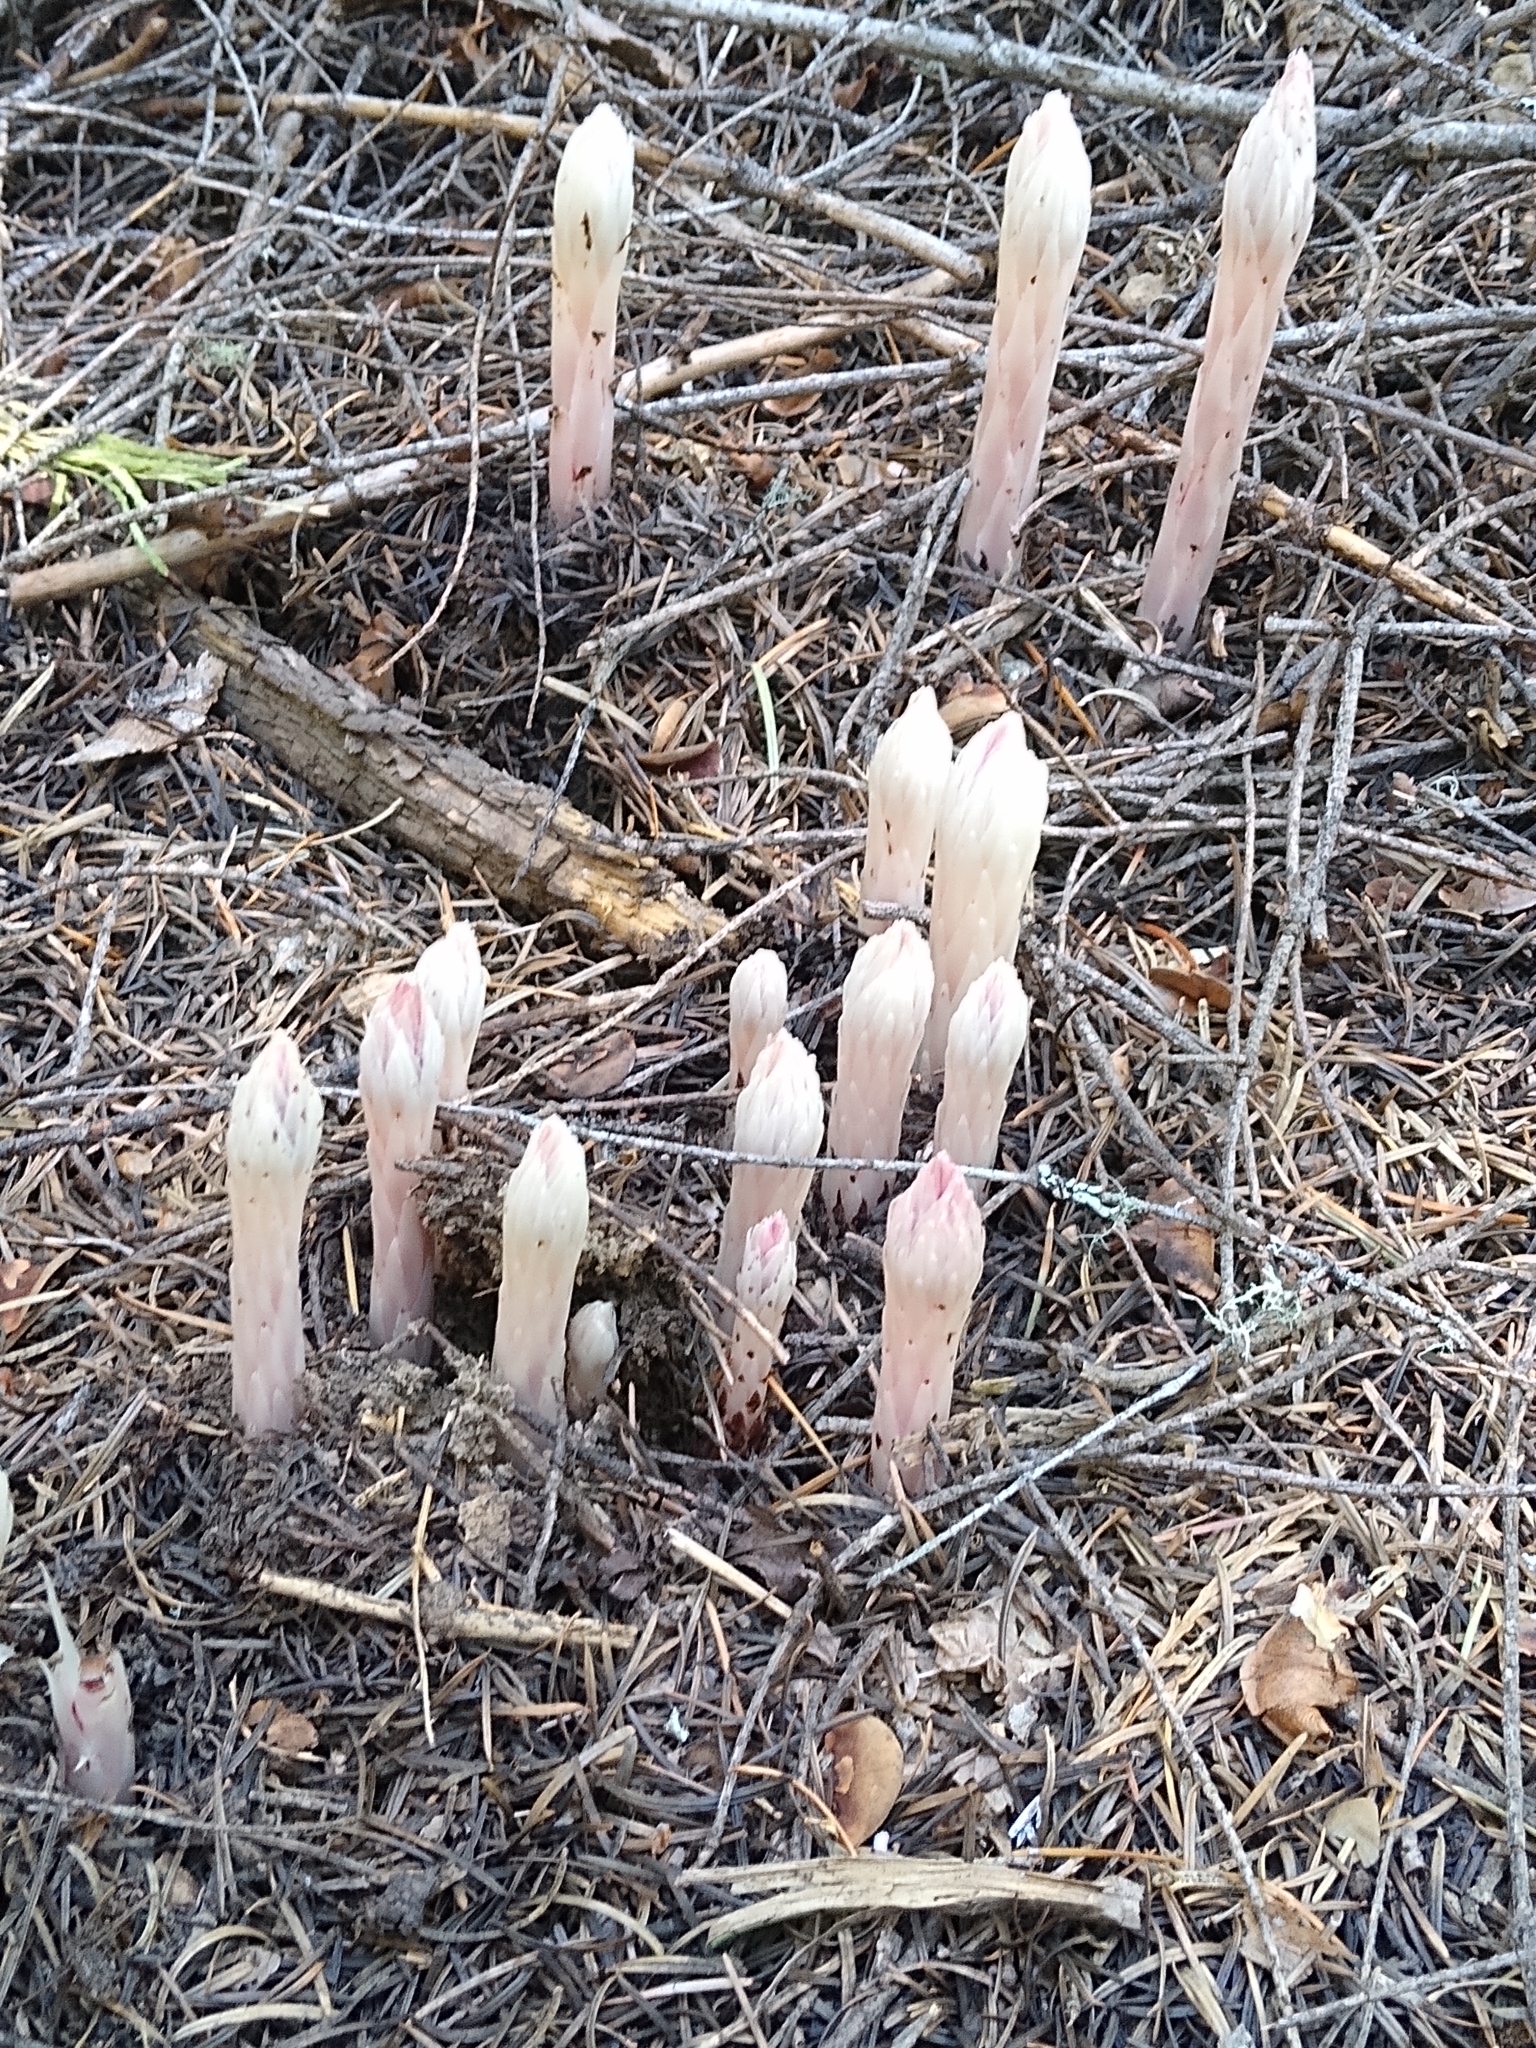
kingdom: Plantae
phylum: Tracheophyta
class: Magnoliopsida
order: Ericales
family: Ericaceae
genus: Allotropa
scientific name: Allotropa virgata
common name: Candy-striped allotropa
